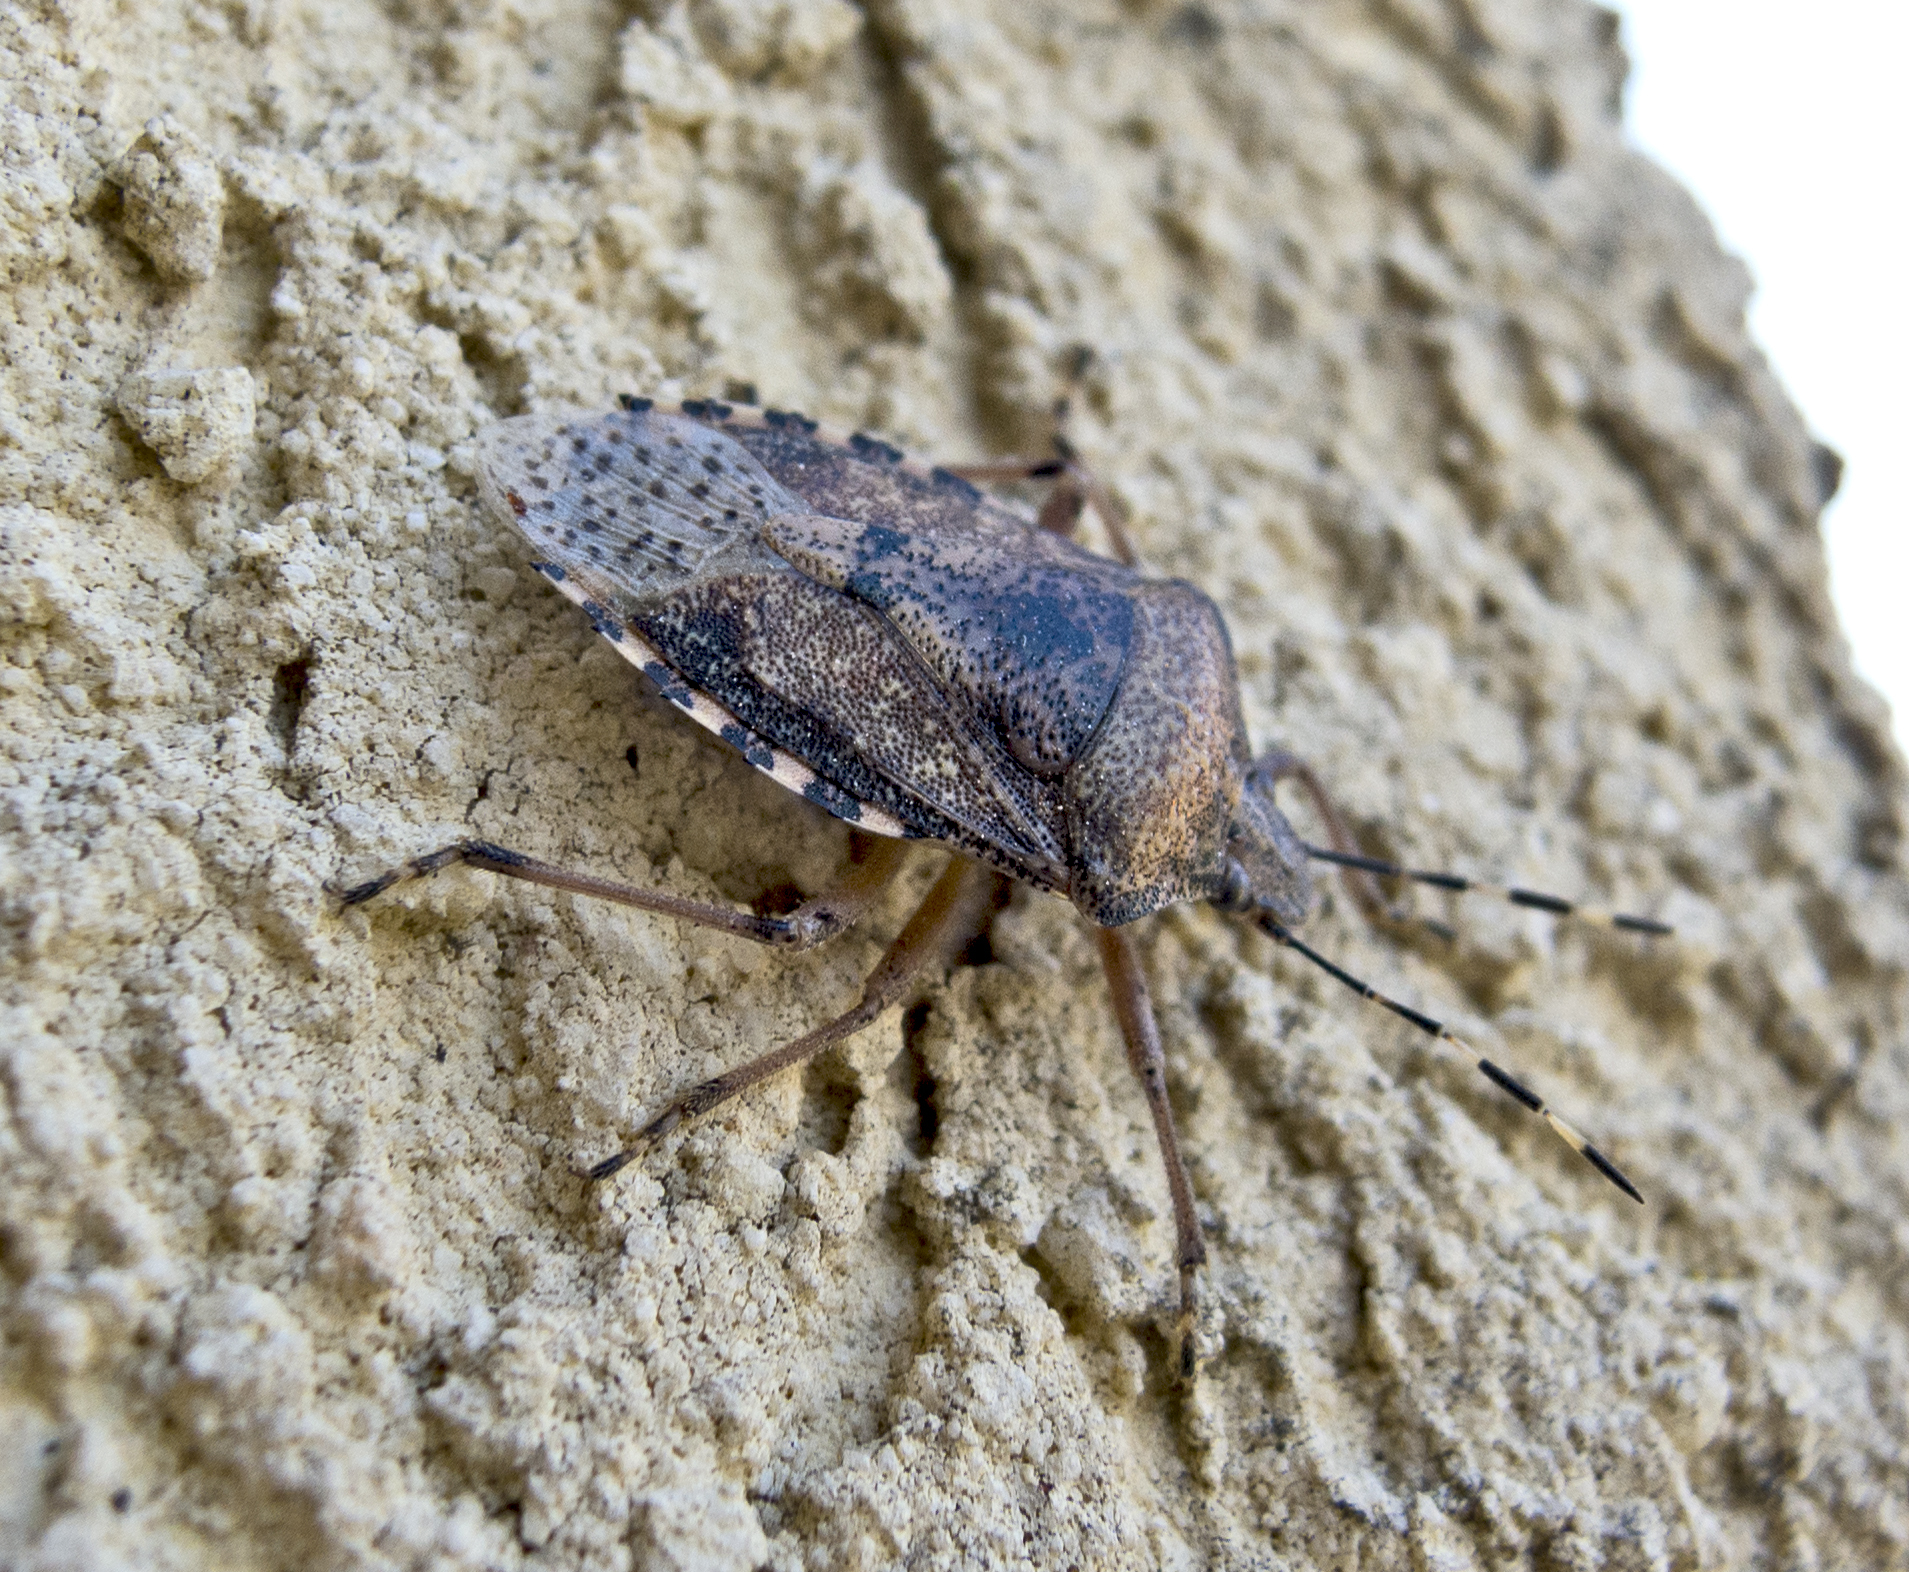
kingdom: Animalia
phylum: Arthropoda
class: Insecta
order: Hemiptera
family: Pentatomidae
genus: Rhaphigaster
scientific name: Rhaphigaster nebulosa
